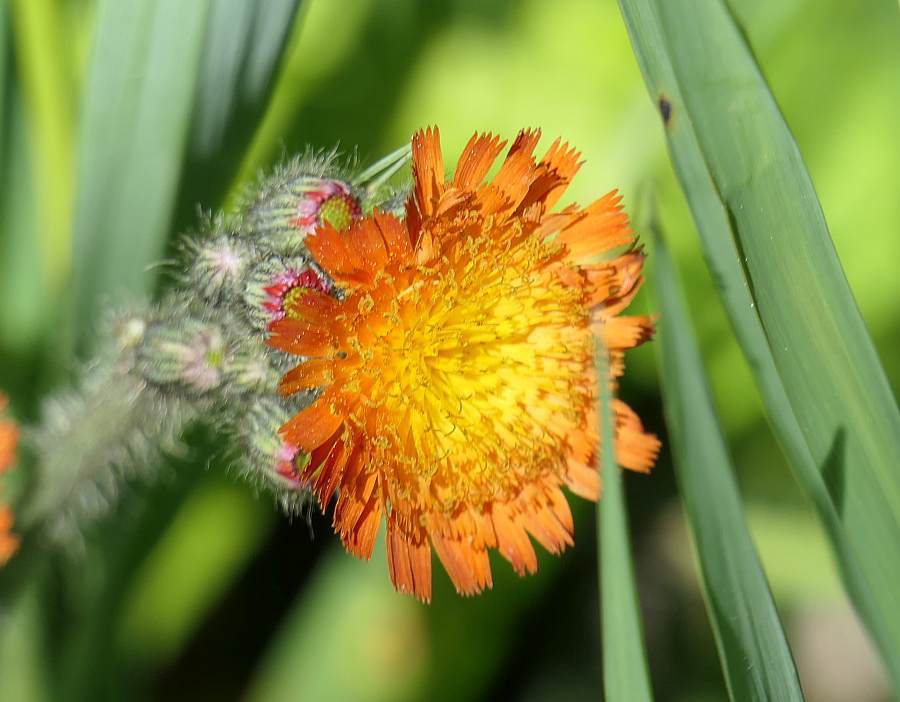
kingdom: Plantae
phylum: Tracheophyta
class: Magnoliopsida
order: Asterales
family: Asteraceae
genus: Pilosella
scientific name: Pilosella aurantiaca
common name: Fox-and-cubs
